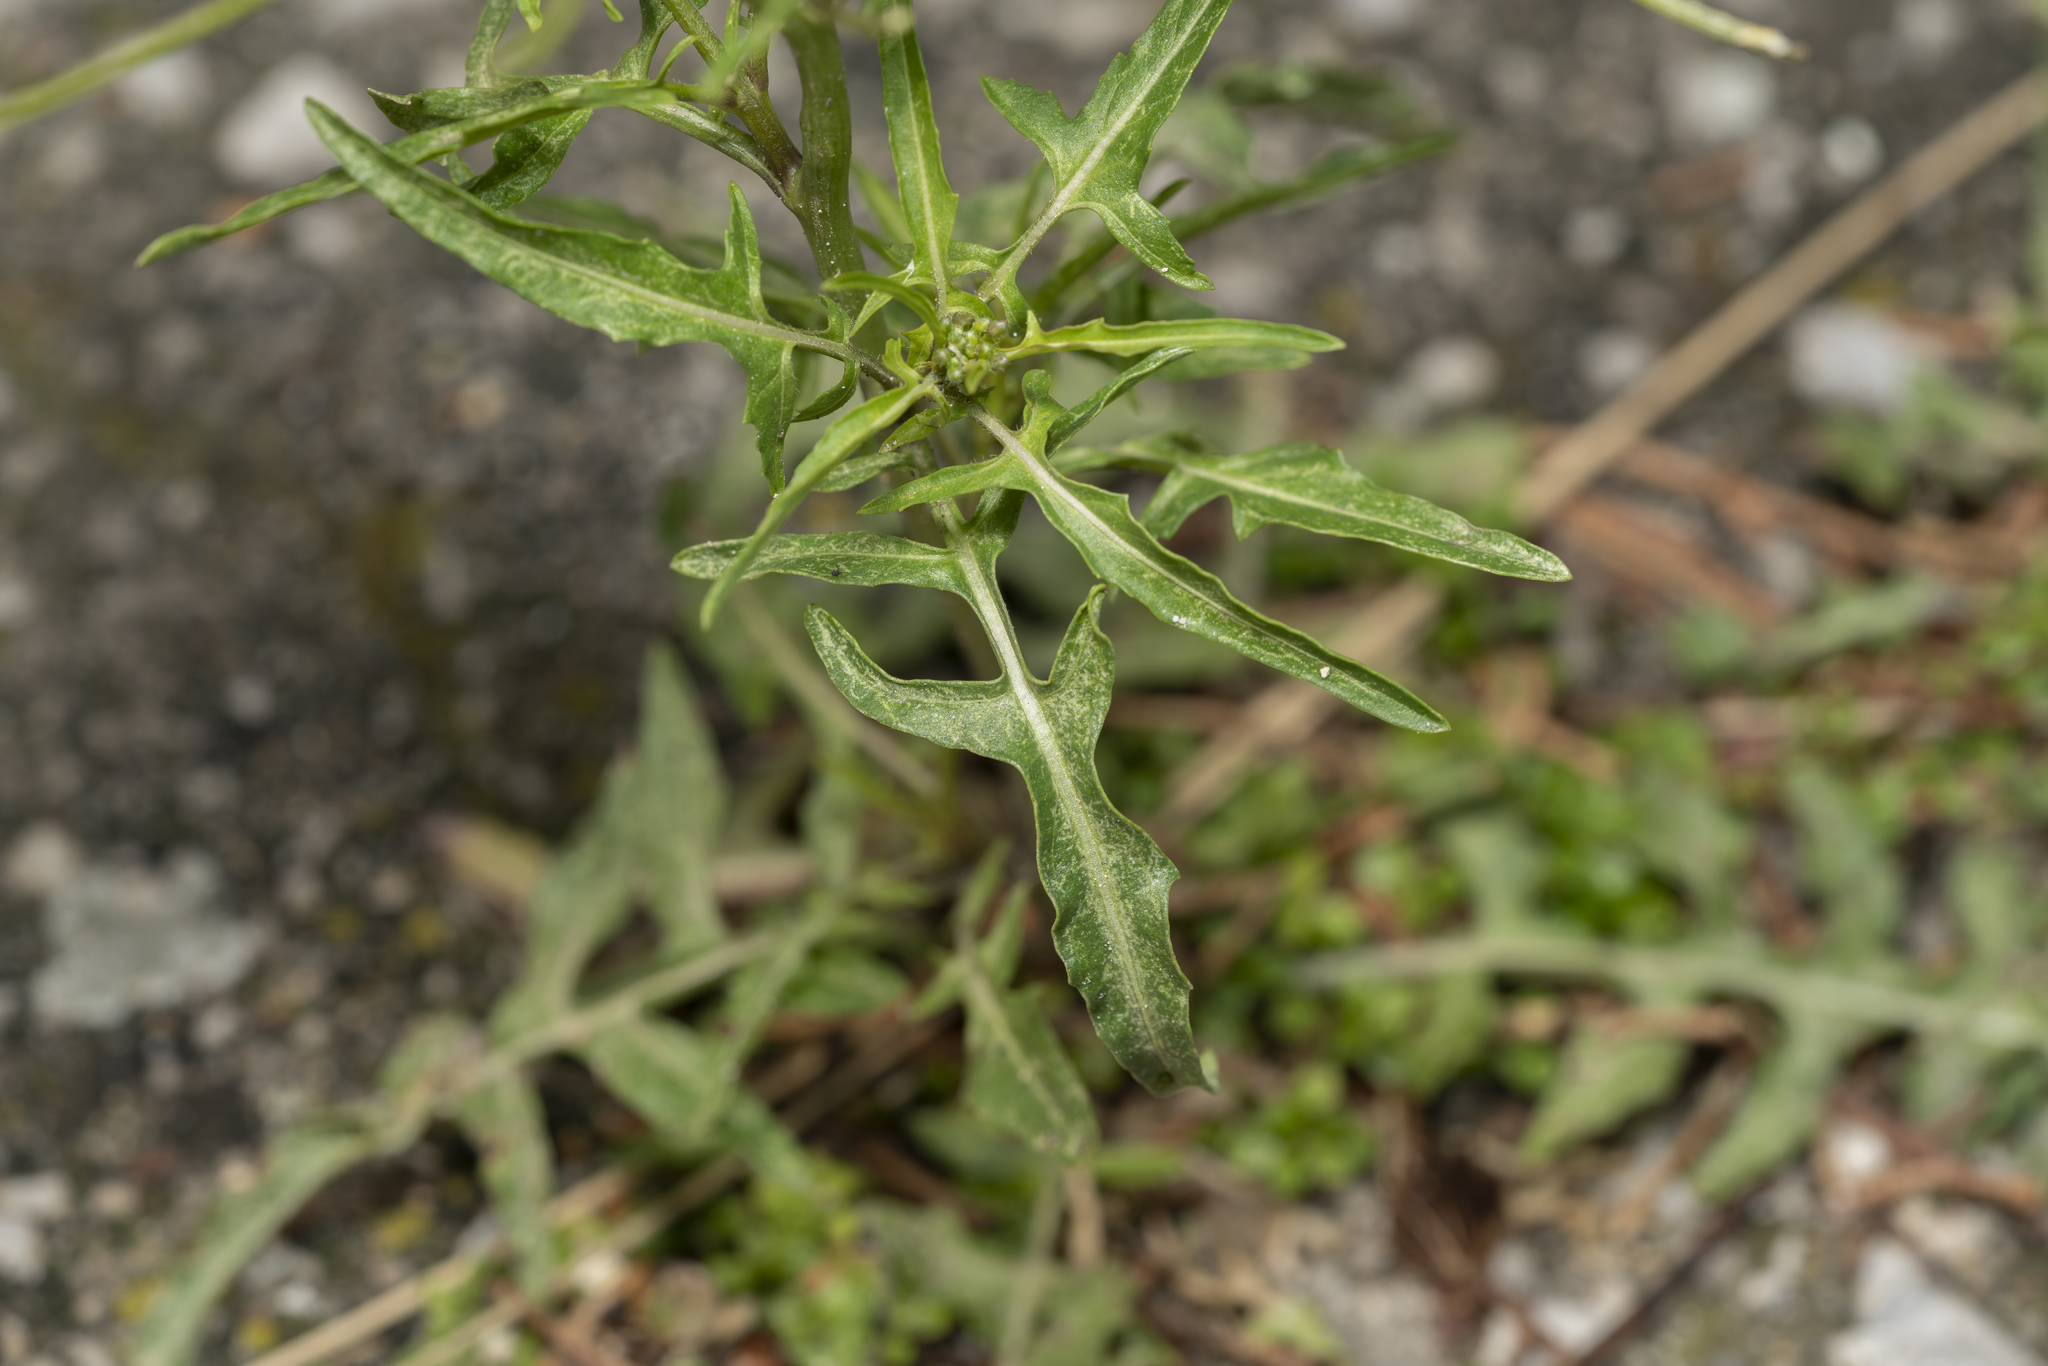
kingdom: Plantae
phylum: Tracheophyta
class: Magnoliopsida
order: Brassicales
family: Brassicaceae
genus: Sisymbrium
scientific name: Sisymbrium irio
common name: London rocket
